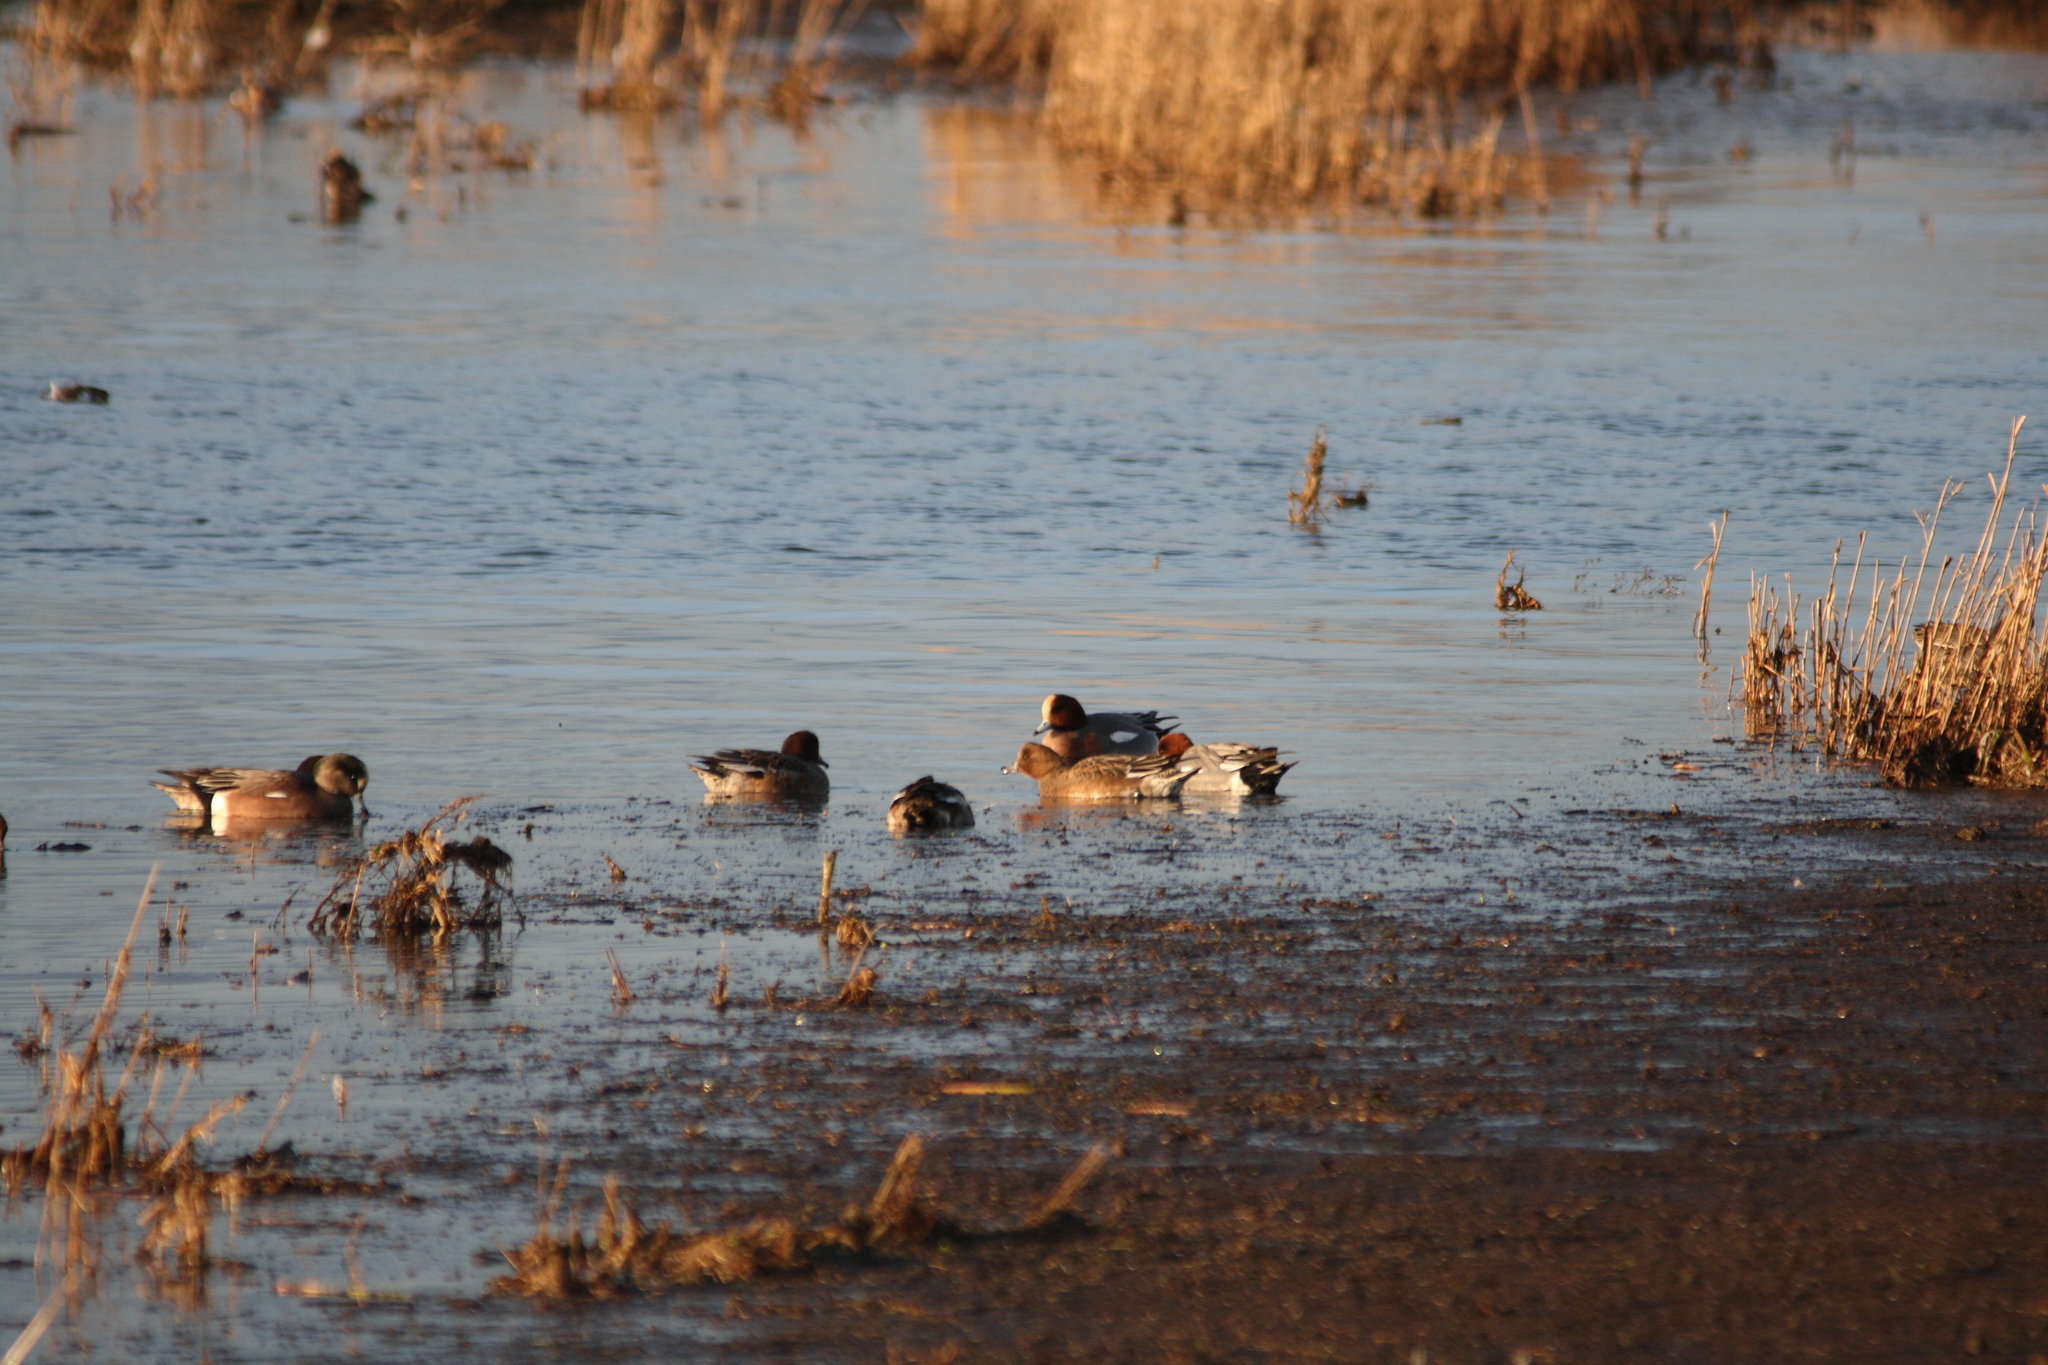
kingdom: Animalia
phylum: Chordata
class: Aves
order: Anseriformes
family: Anatidae
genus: Mareca
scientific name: Mareca penelope
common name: Eurasian wigeon
